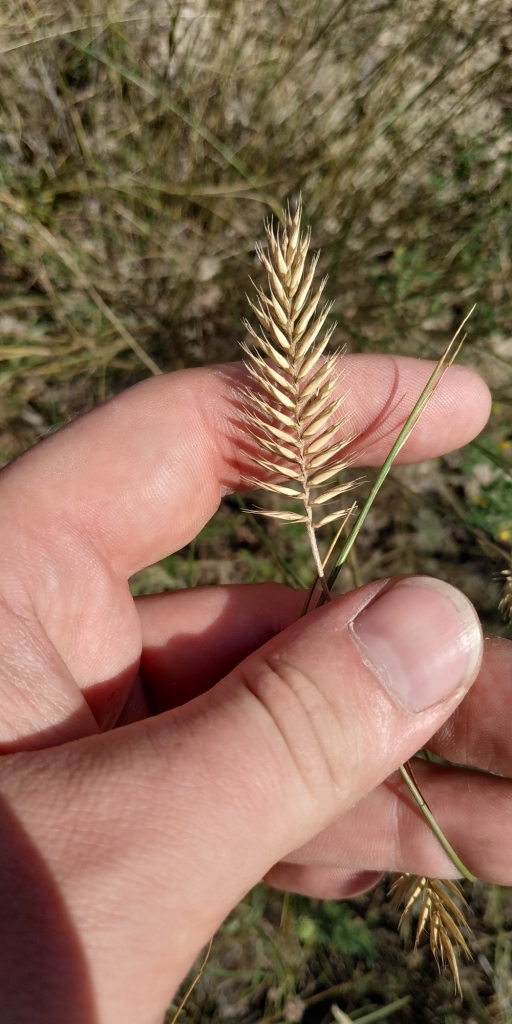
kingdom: Plantae
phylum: Tracheophyta
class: Liliopsida
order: Poales
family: Poaceae
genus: Agropyron
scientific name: Agropyron cristatum
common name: Crested wheatgrass
